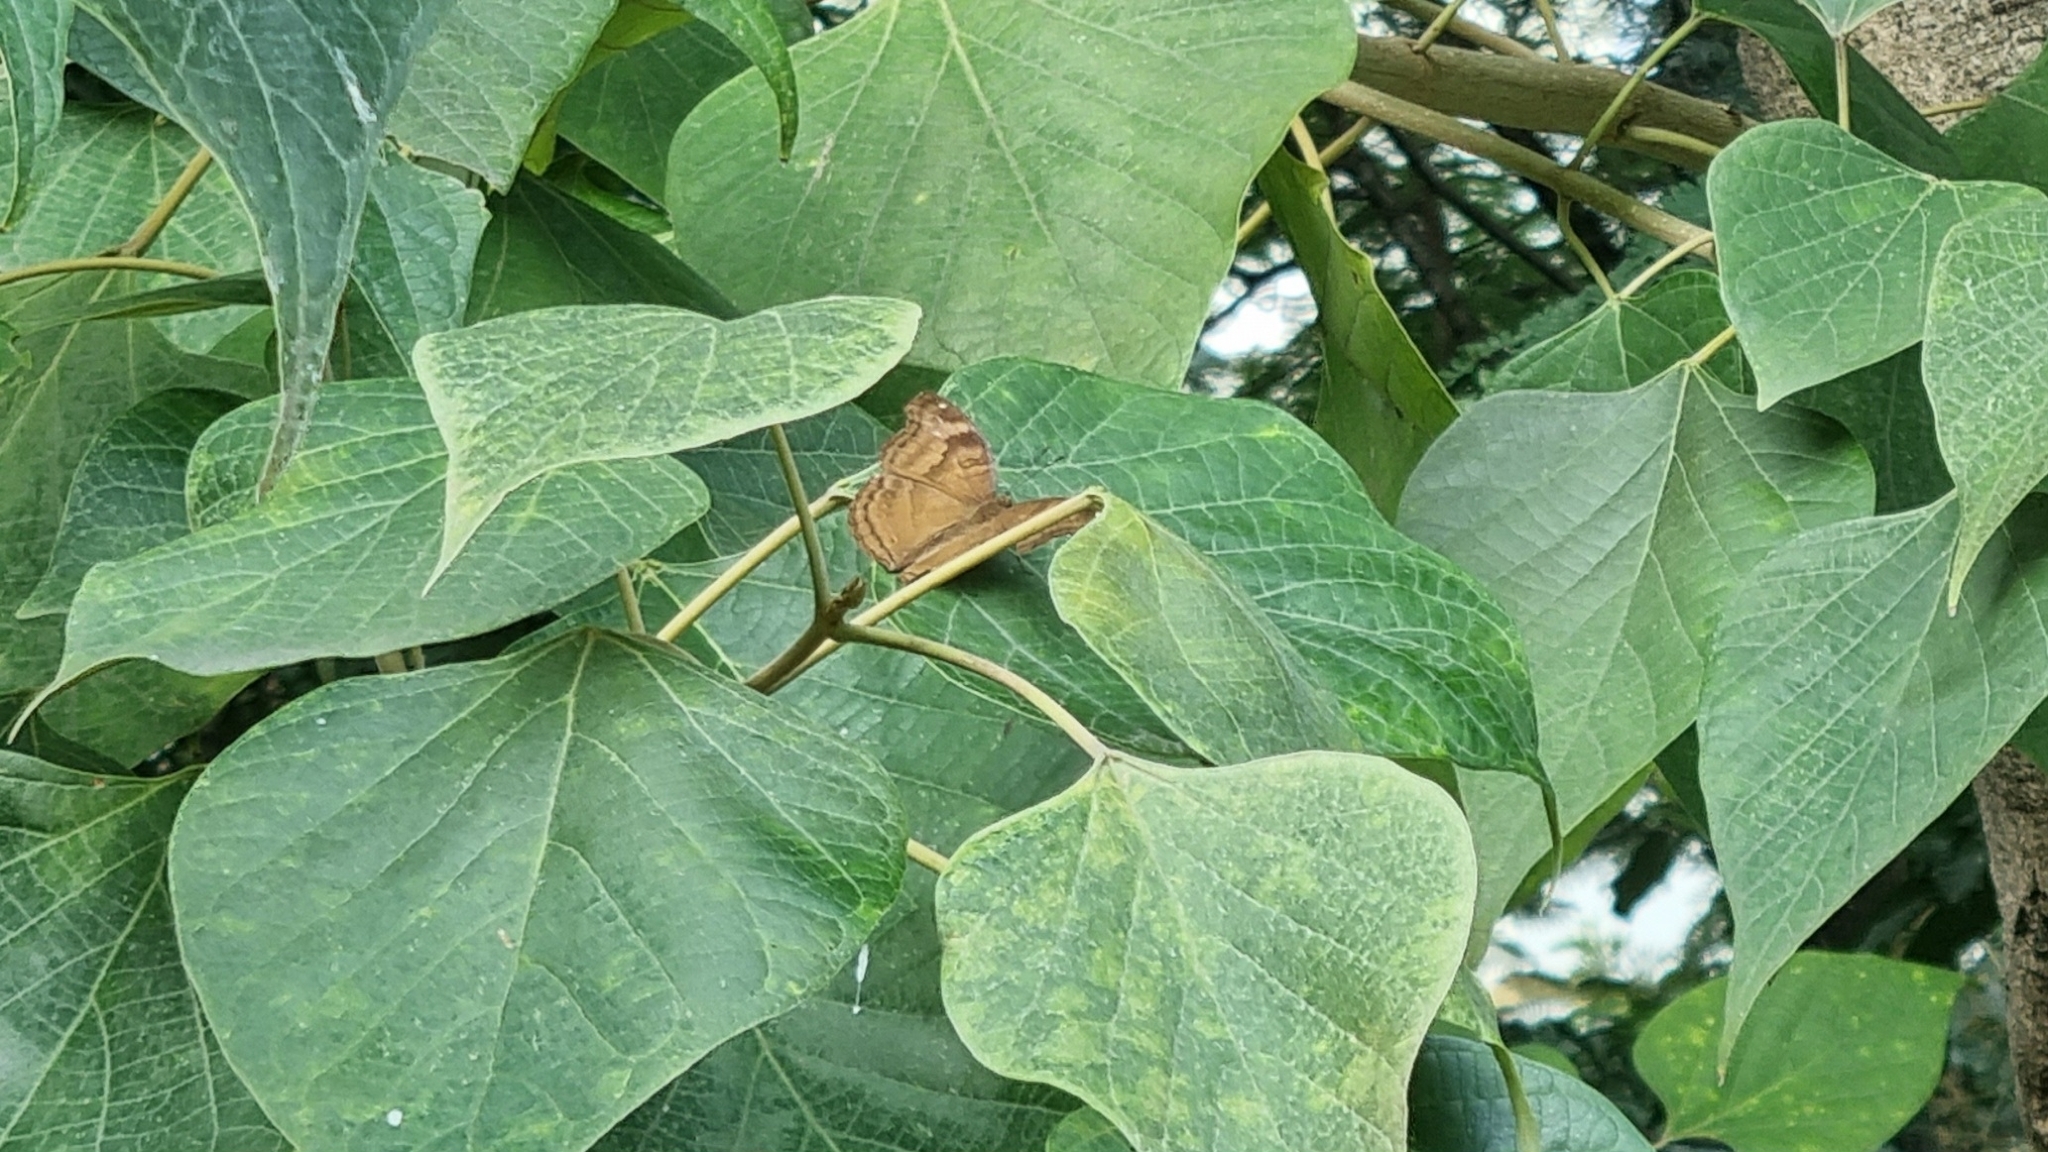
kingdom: Animalia
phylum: Arthropoda
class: Insecta
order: Lepidoptera
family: Nymphalidae
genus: Junonia
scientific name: Junonia iphita
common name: Chocolate pansy
